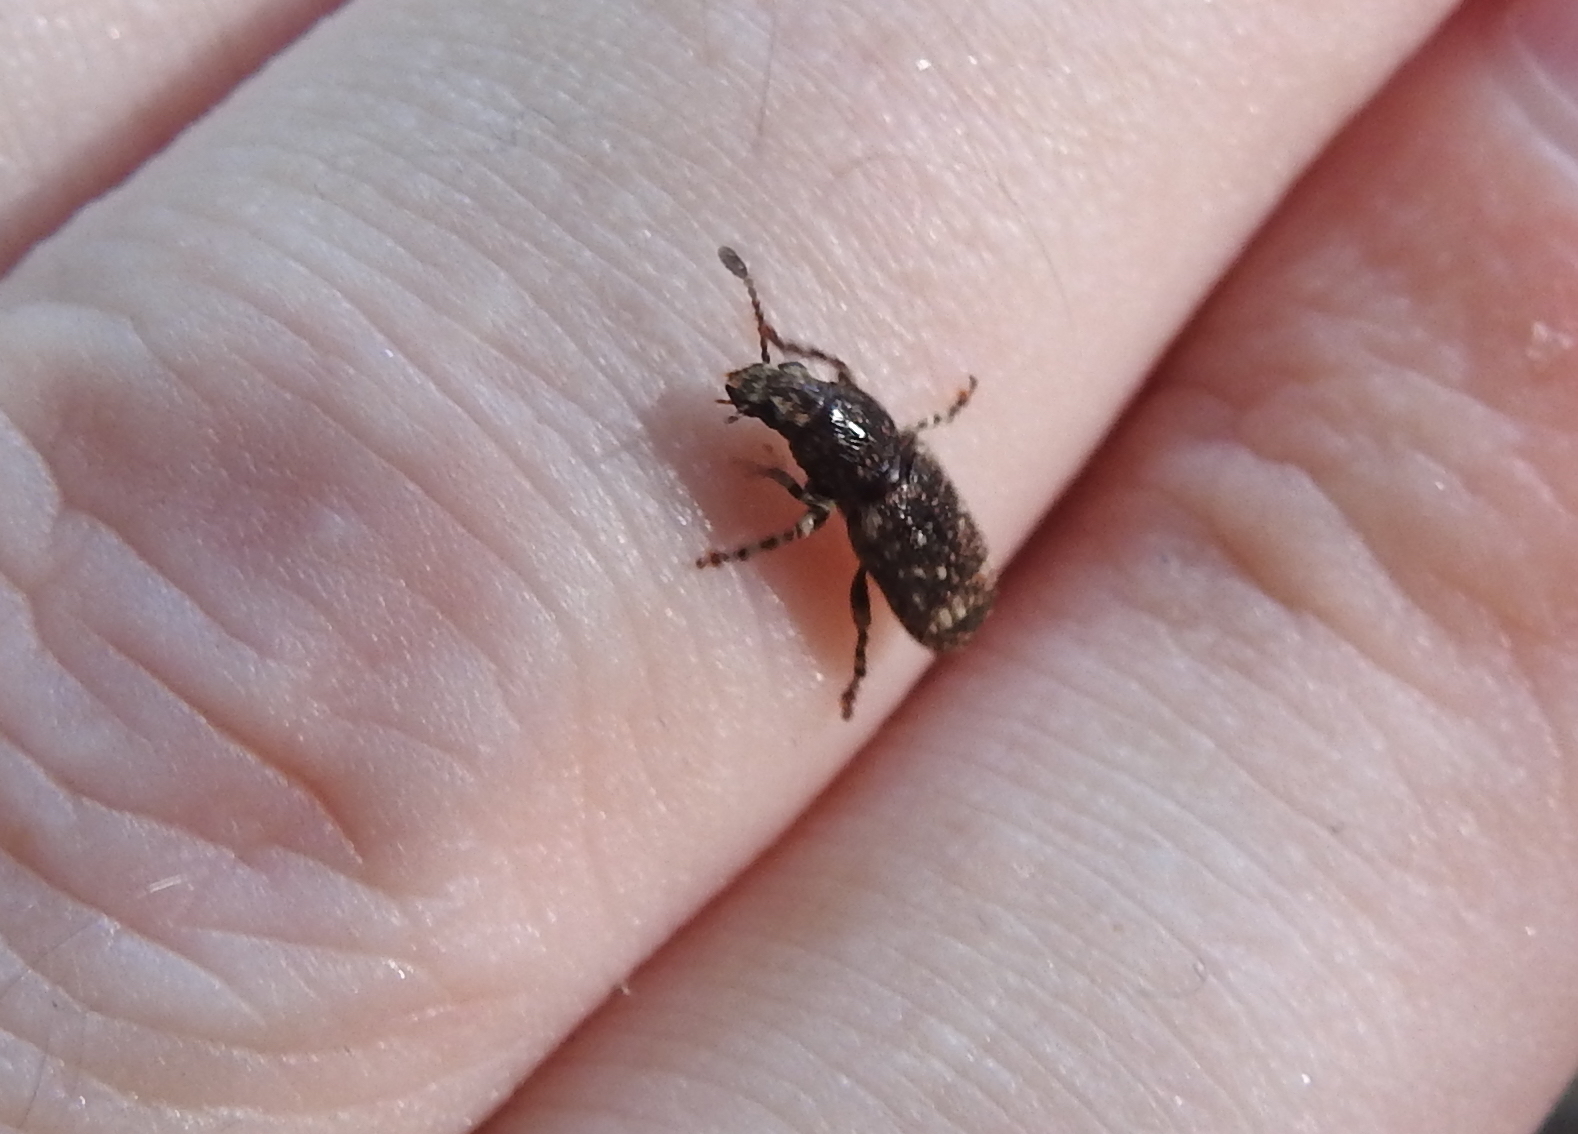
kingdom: Animalia
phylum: Arthropoda
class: Insecta
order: Coleoptera
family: Anthribidae
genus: Eucorynus
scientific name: Eucorynus crassicornis
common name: Fungus weevil
